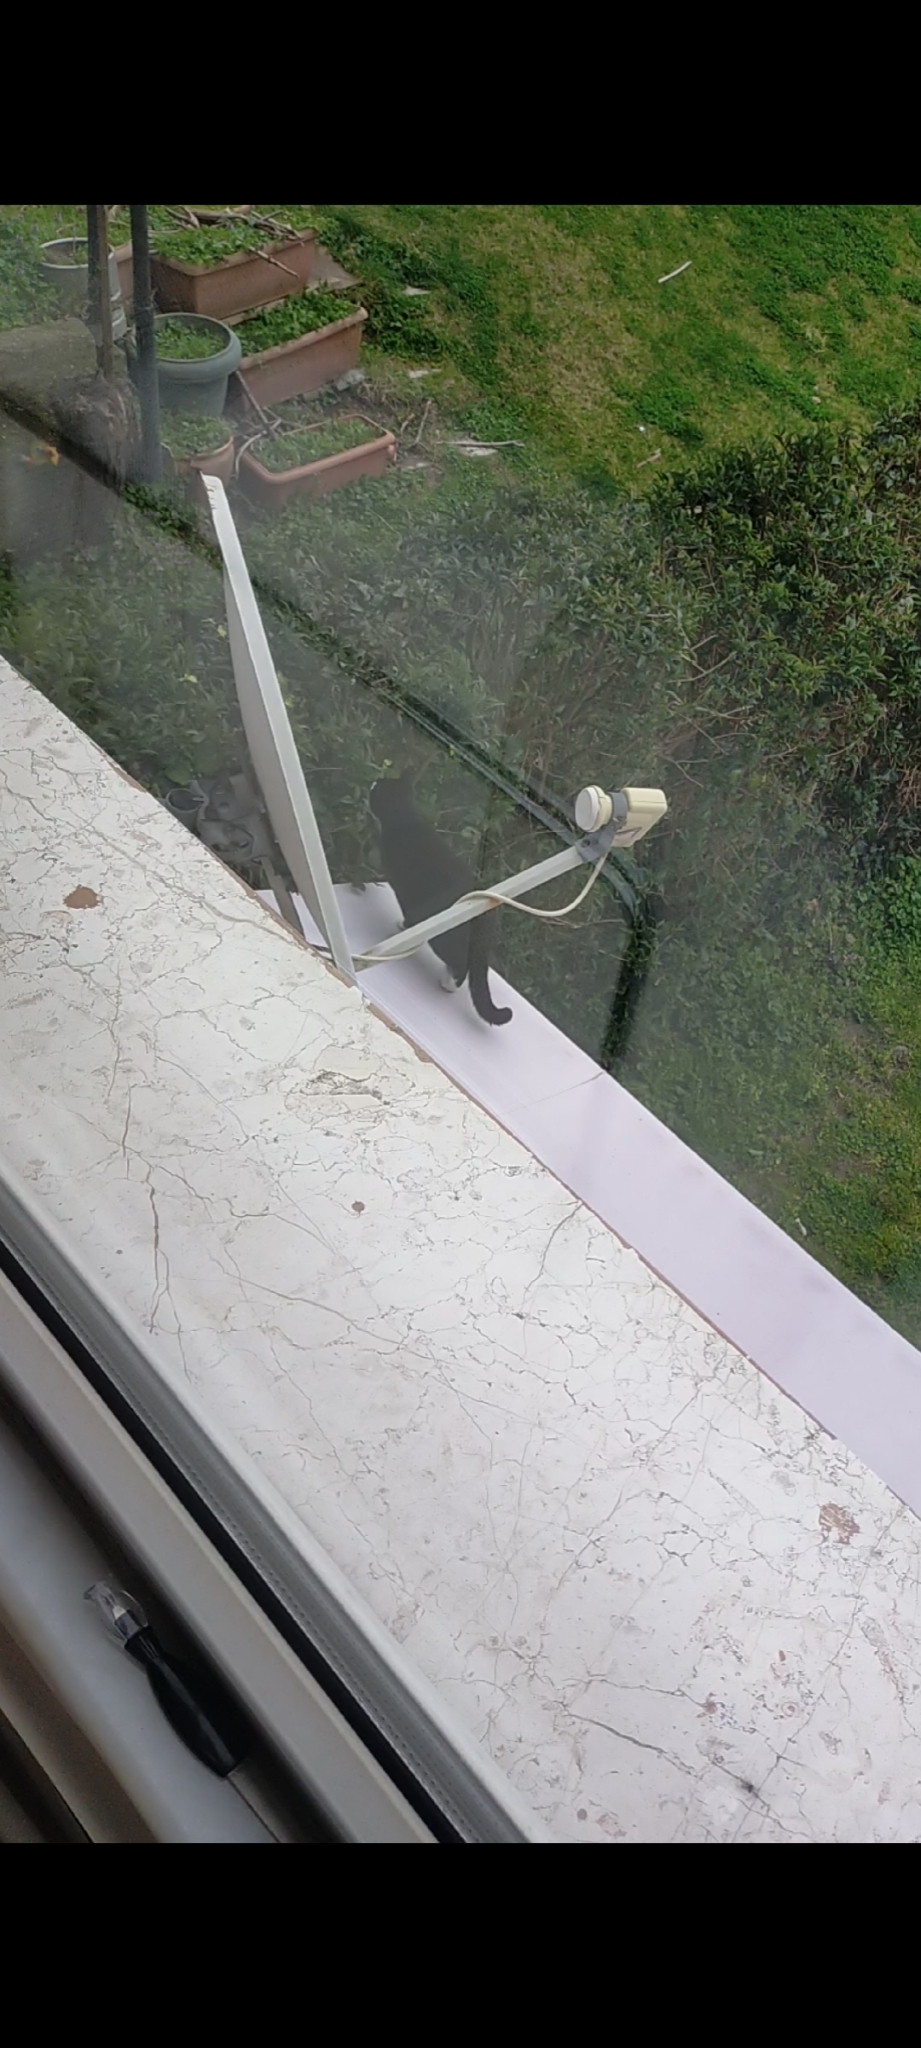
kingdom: Animalia
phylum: Chordata
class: Mammalia
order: Carnivora
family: Felidae
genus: Felis
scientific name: Felis catus
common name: Domestic cat
